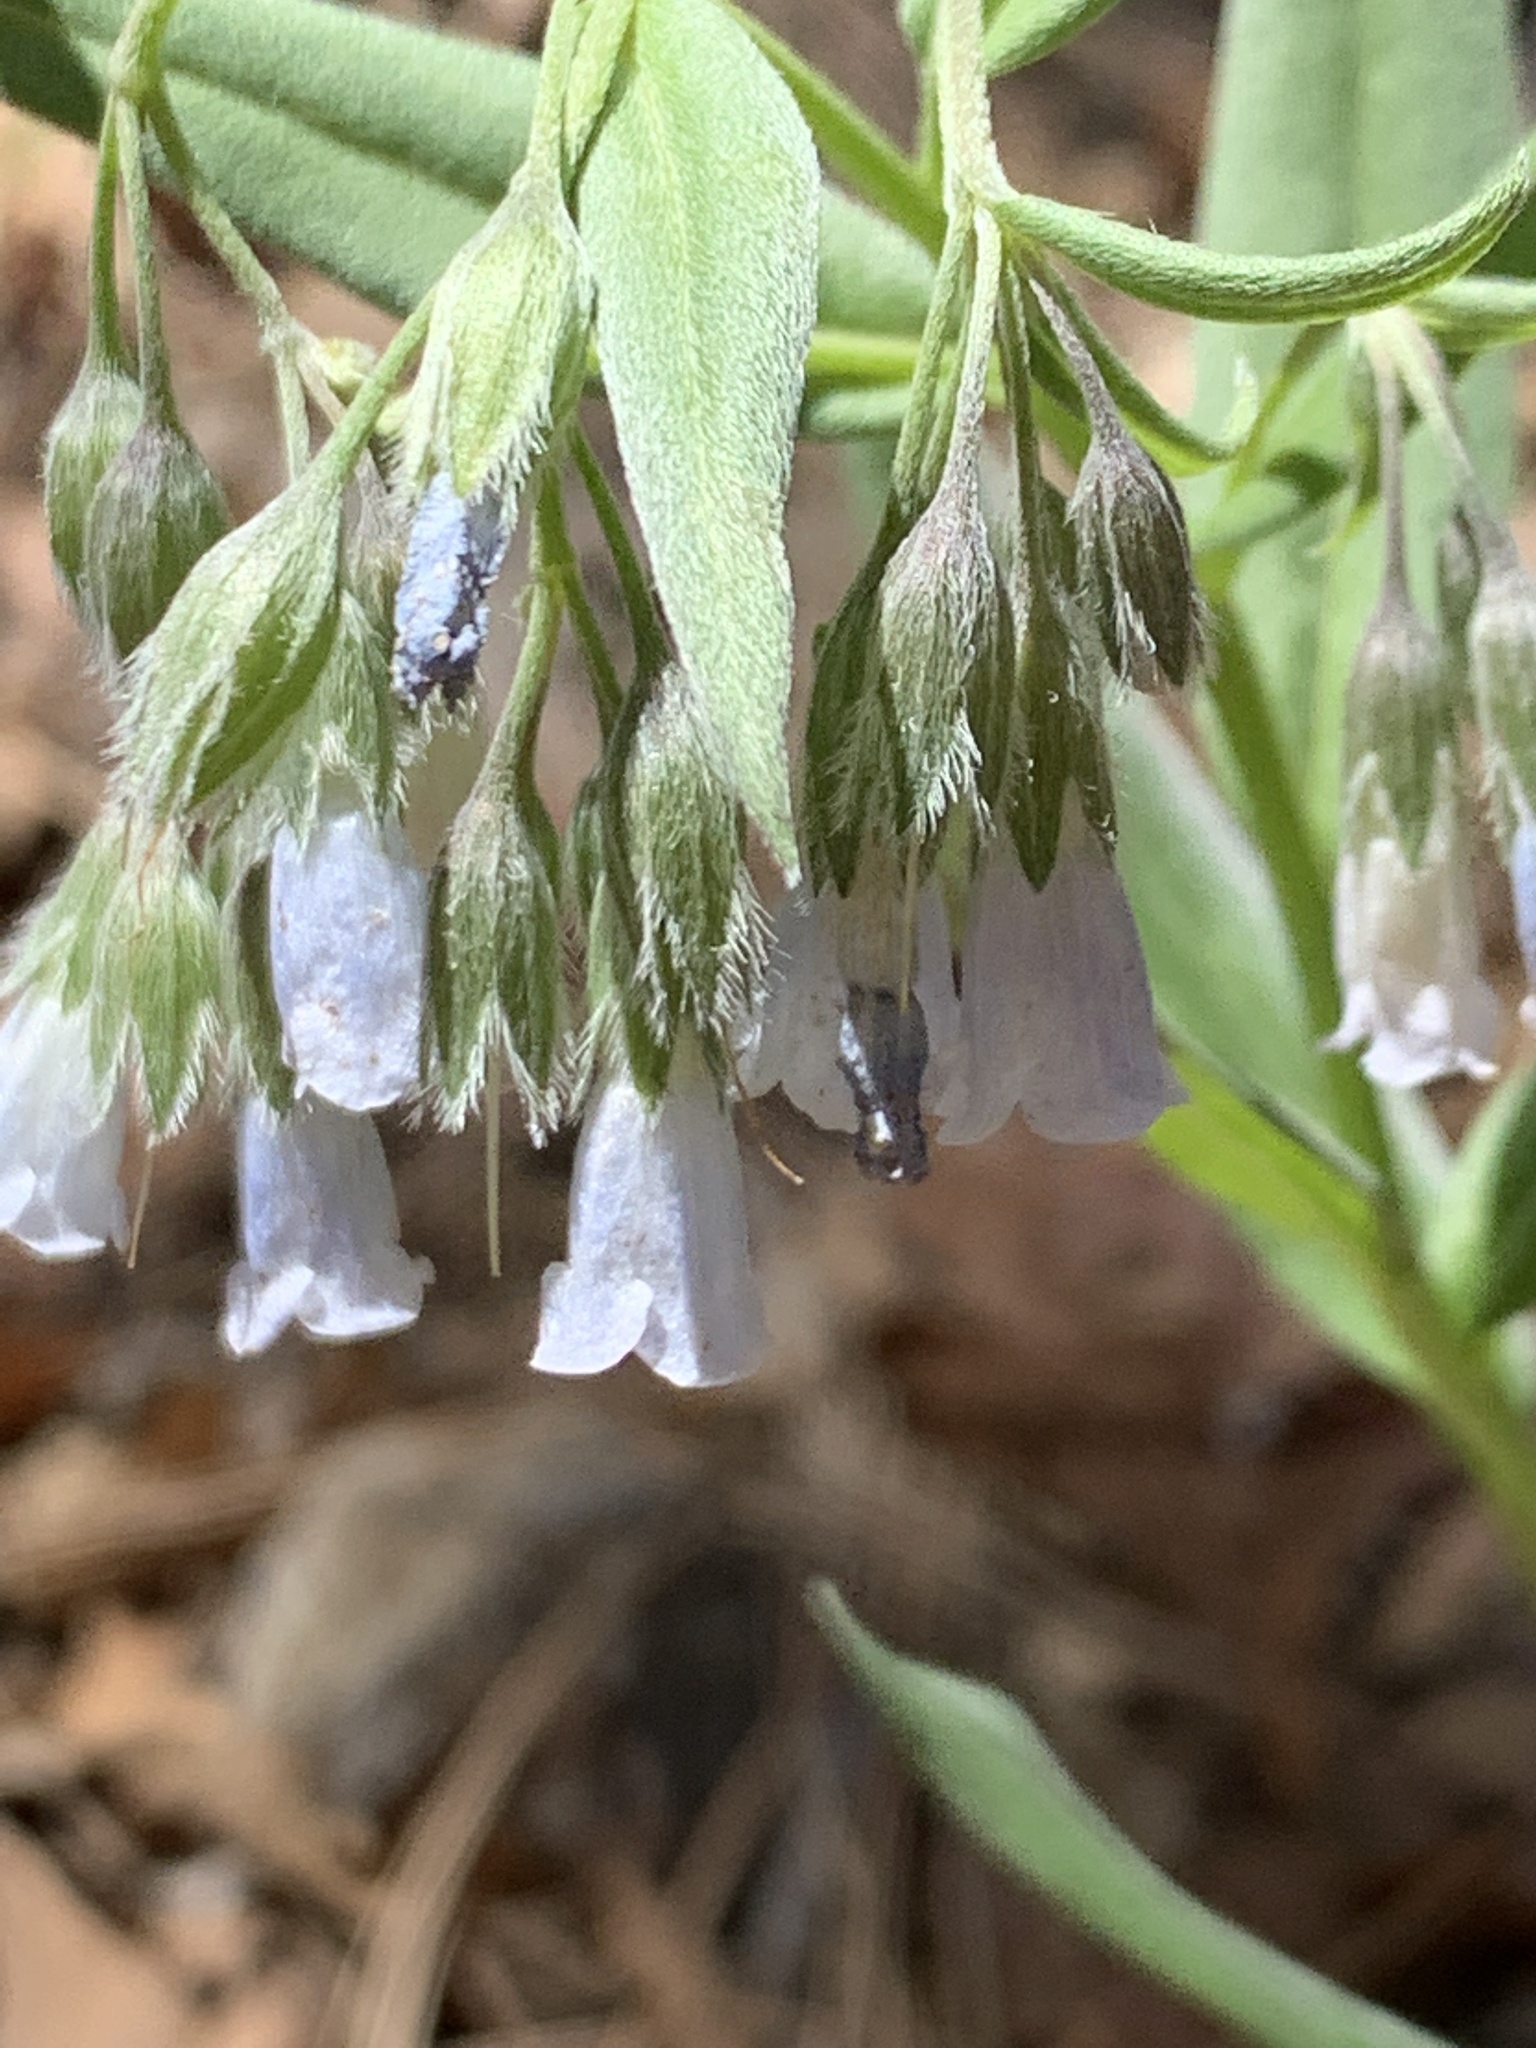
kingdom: Plantae
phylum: Tracheophyta
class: Magnoliopsida
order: Boraginales
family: Boraginaceae
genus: Mertensia
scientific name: Mertensia fendleri
